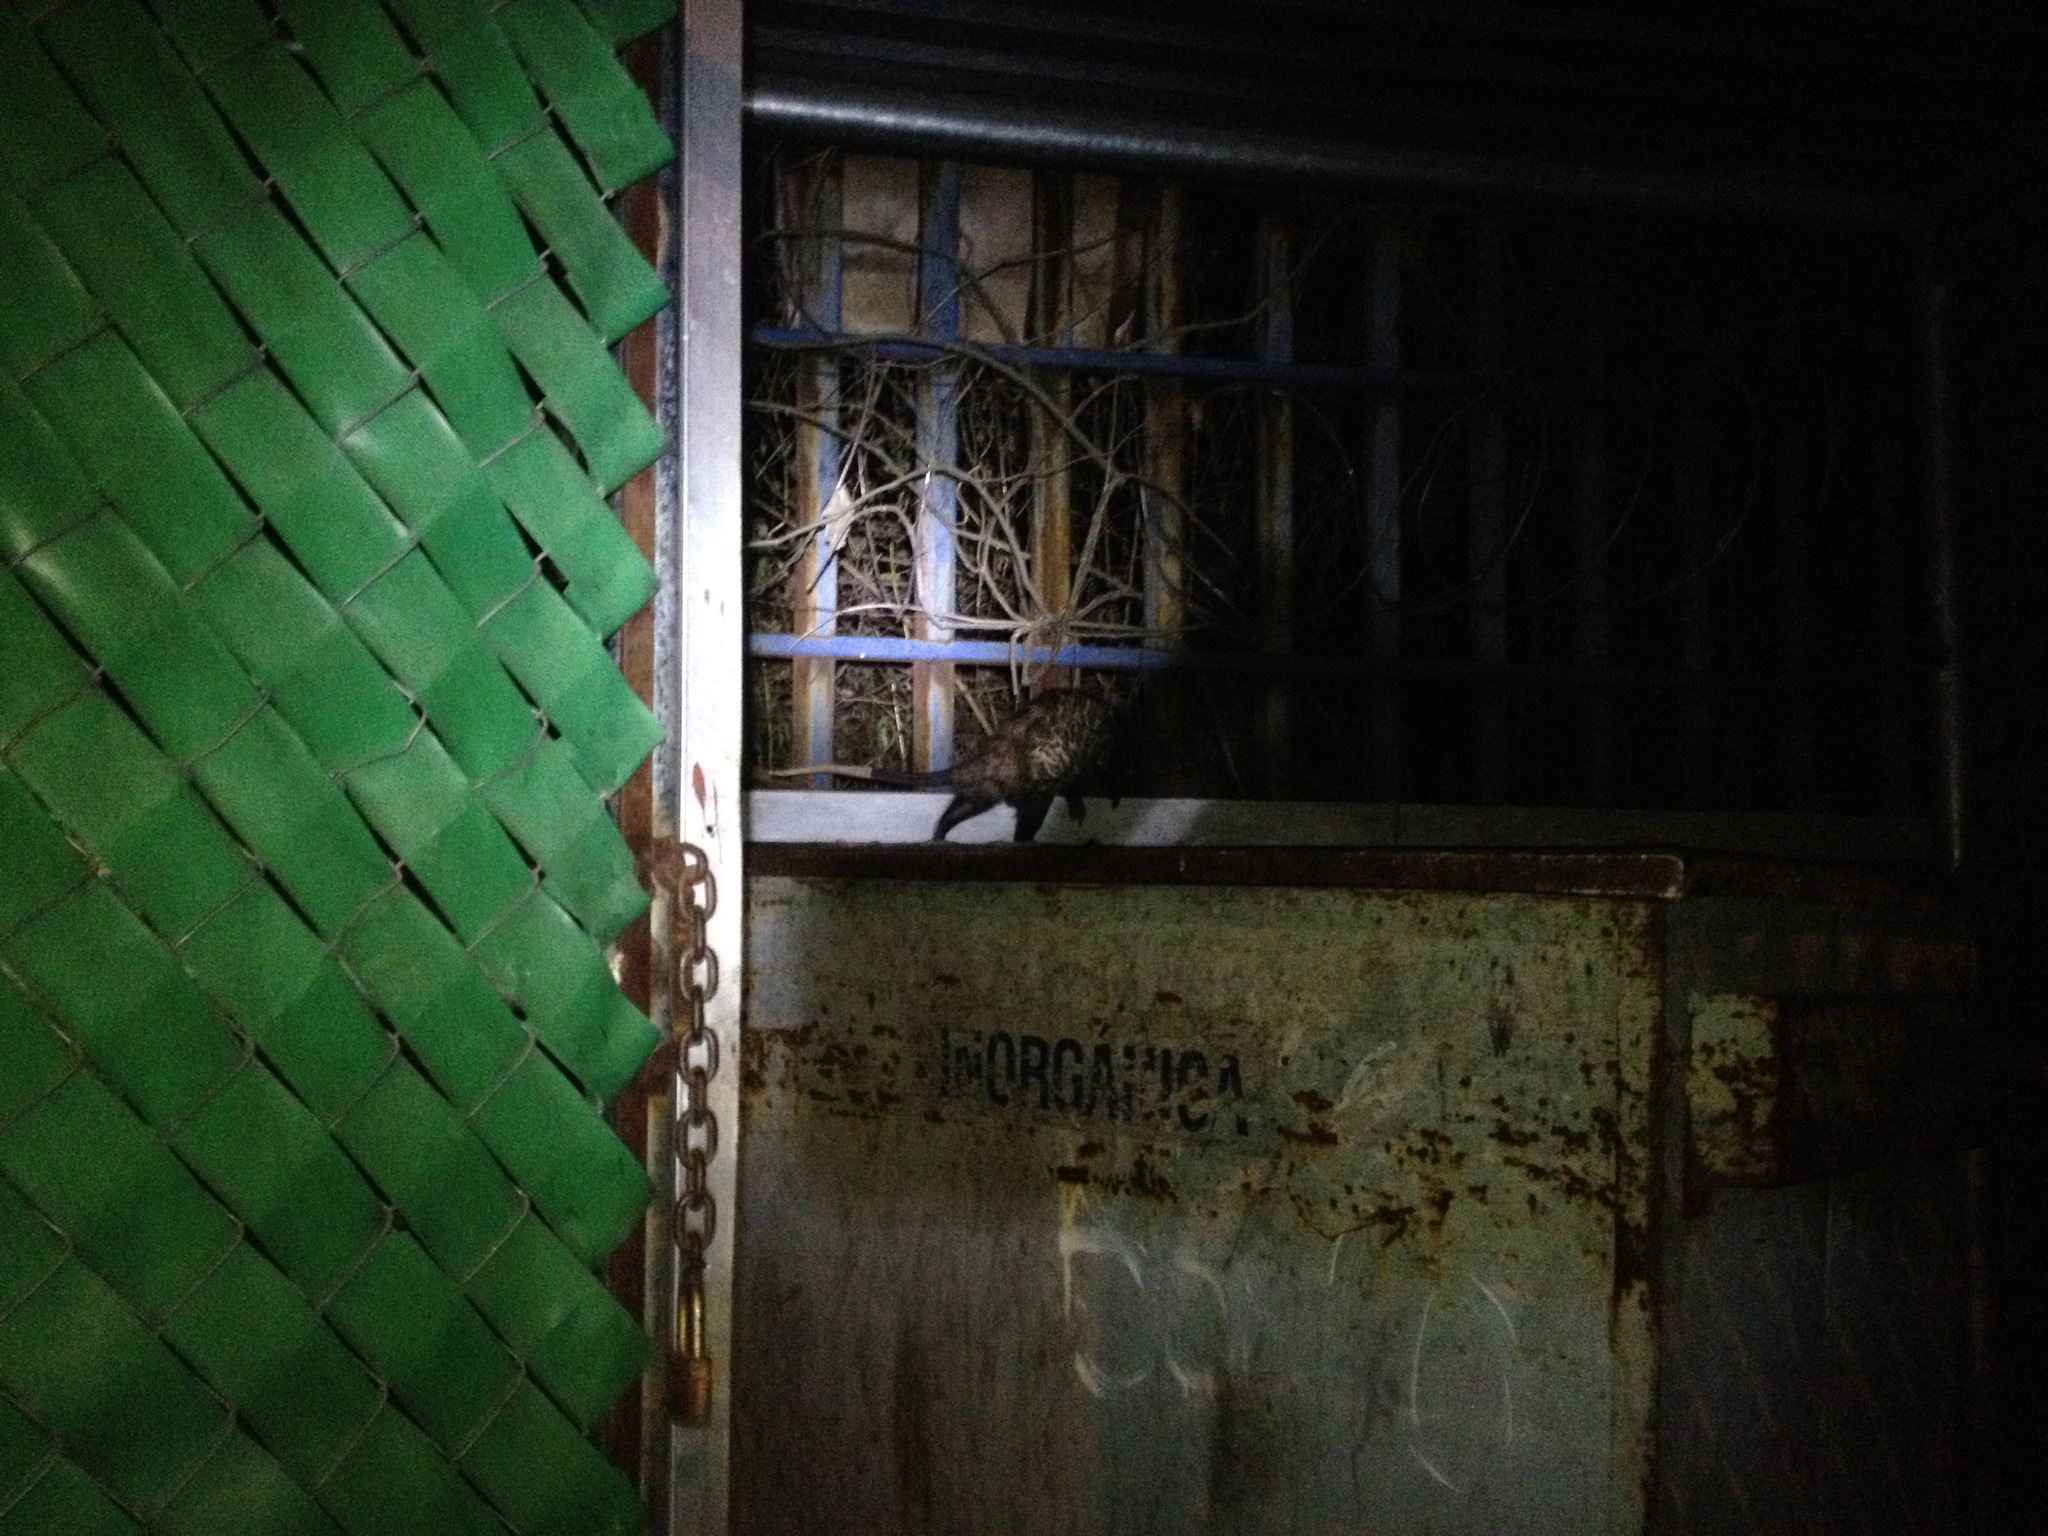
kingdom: Animalia
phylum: Chordata
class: Mammalia
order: Didelphimorphia
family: Didelphidae
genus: Didelphis
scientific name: Didelphis virginiana
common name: Virginia opossum
